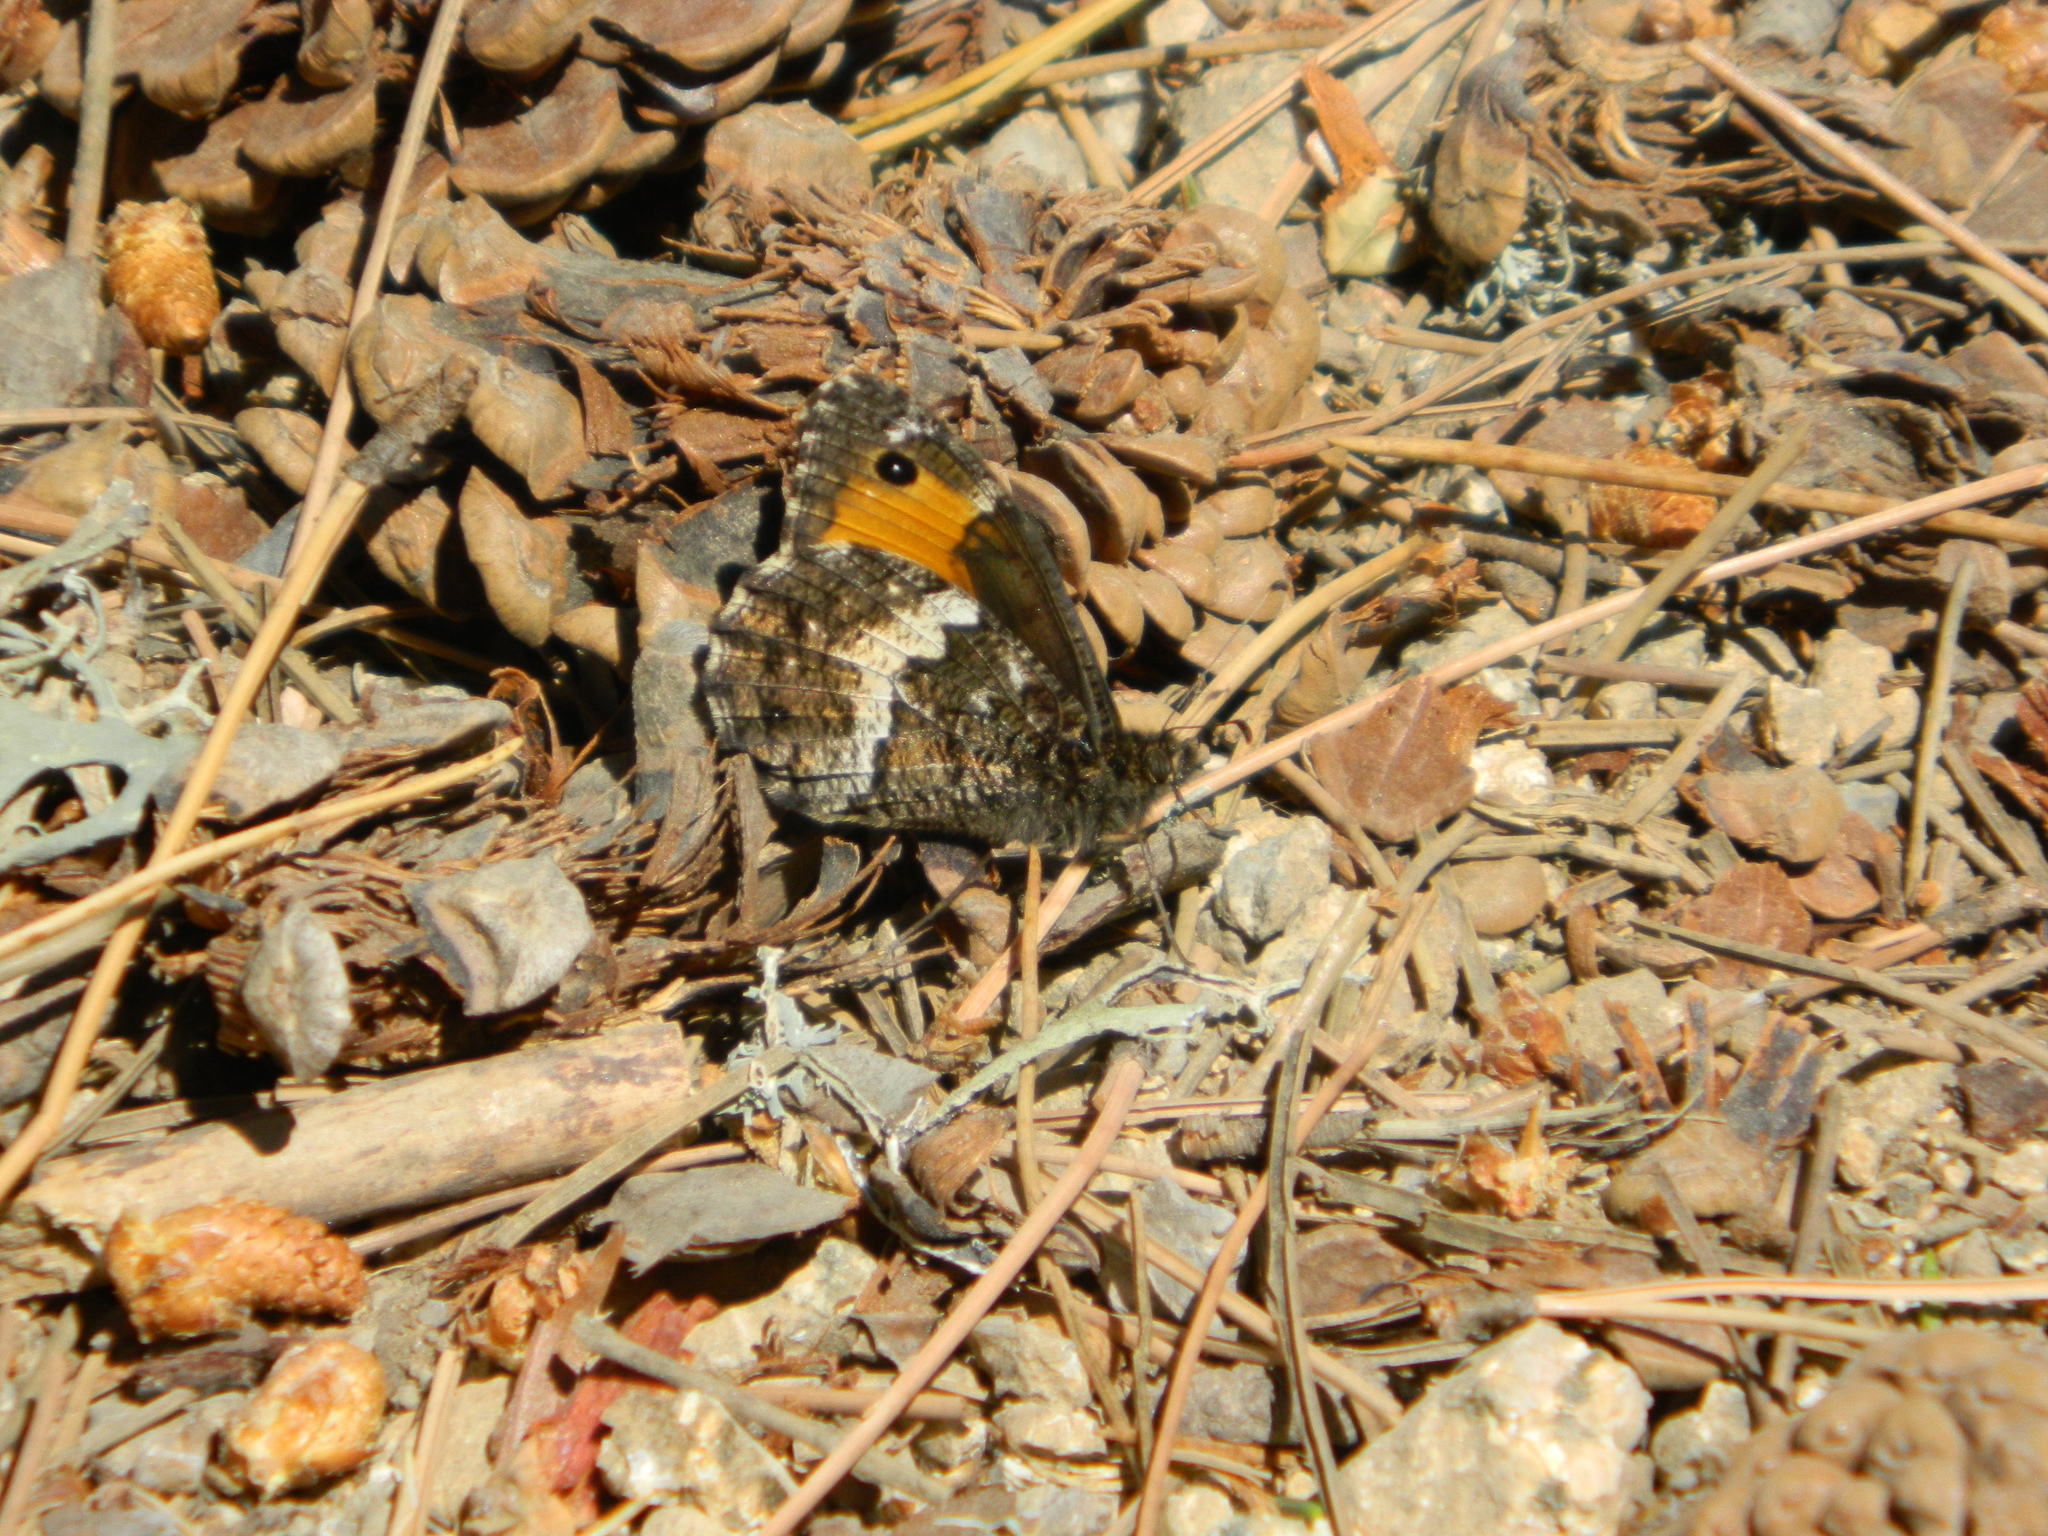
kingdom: Animalia
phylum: Arthropoda
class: Insecta
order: Lepidoptera
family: Nymphalidae
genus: Hipparchia
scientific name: Hipparchia neomiris
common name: Corsican grayling
